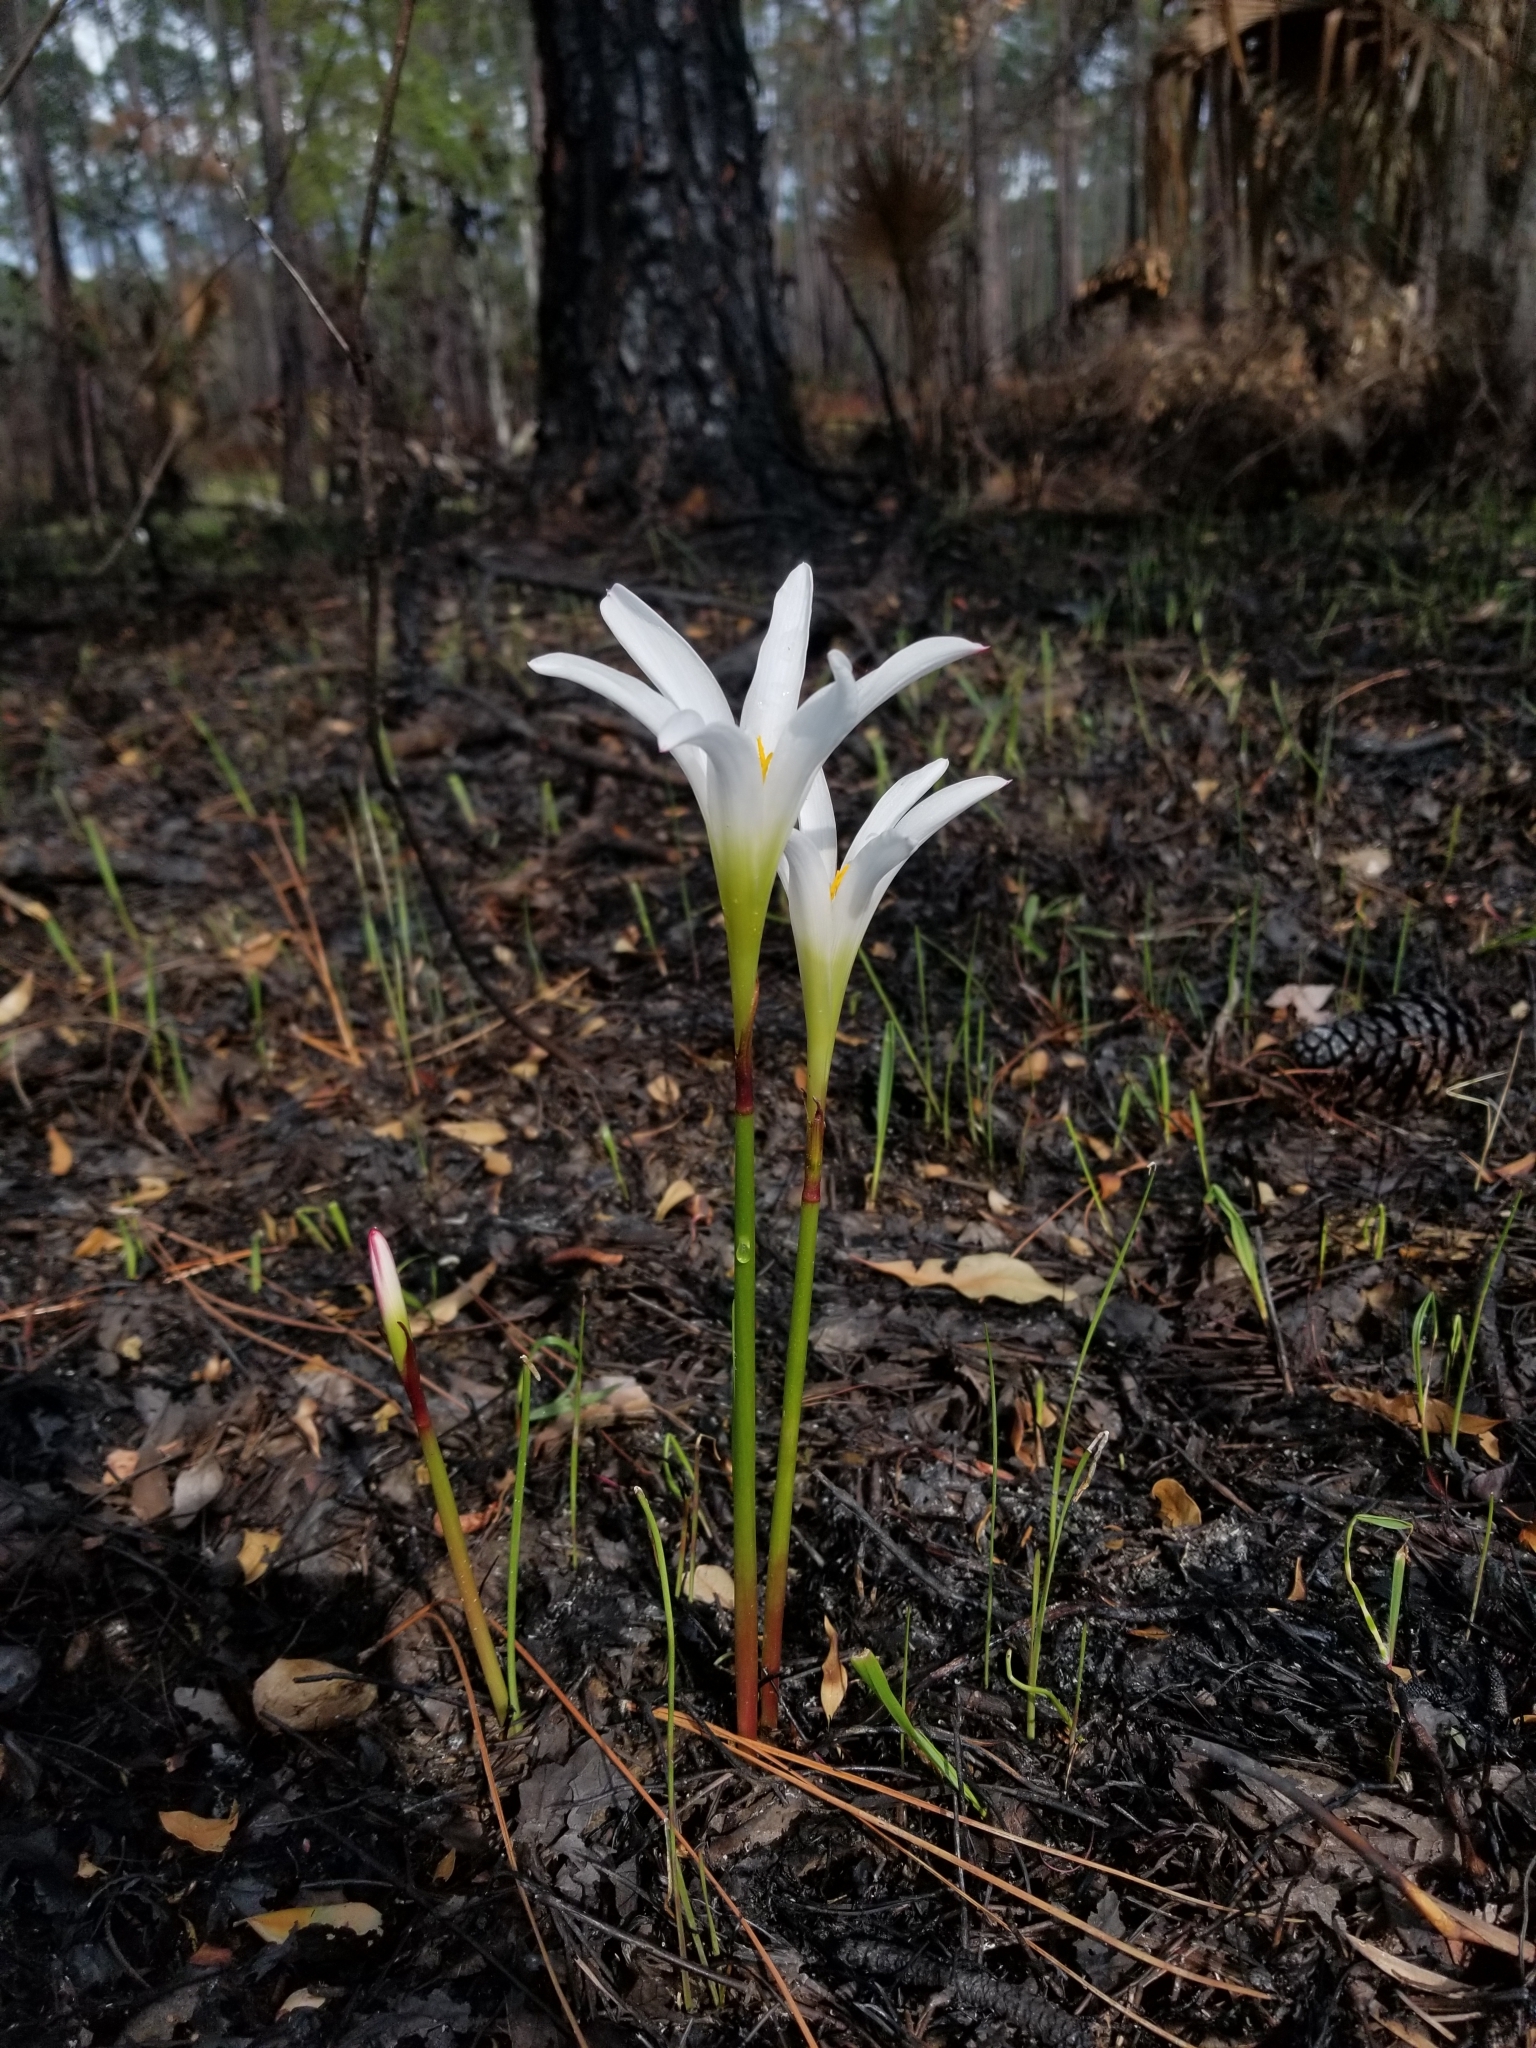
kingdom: Plantae
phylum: Tracheophyta
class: Liliopsida
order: Asparagales
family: Amaryllidaceae
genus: Zephyranthes
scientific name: Zephyranthes atamasco
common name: Atamasco lily
